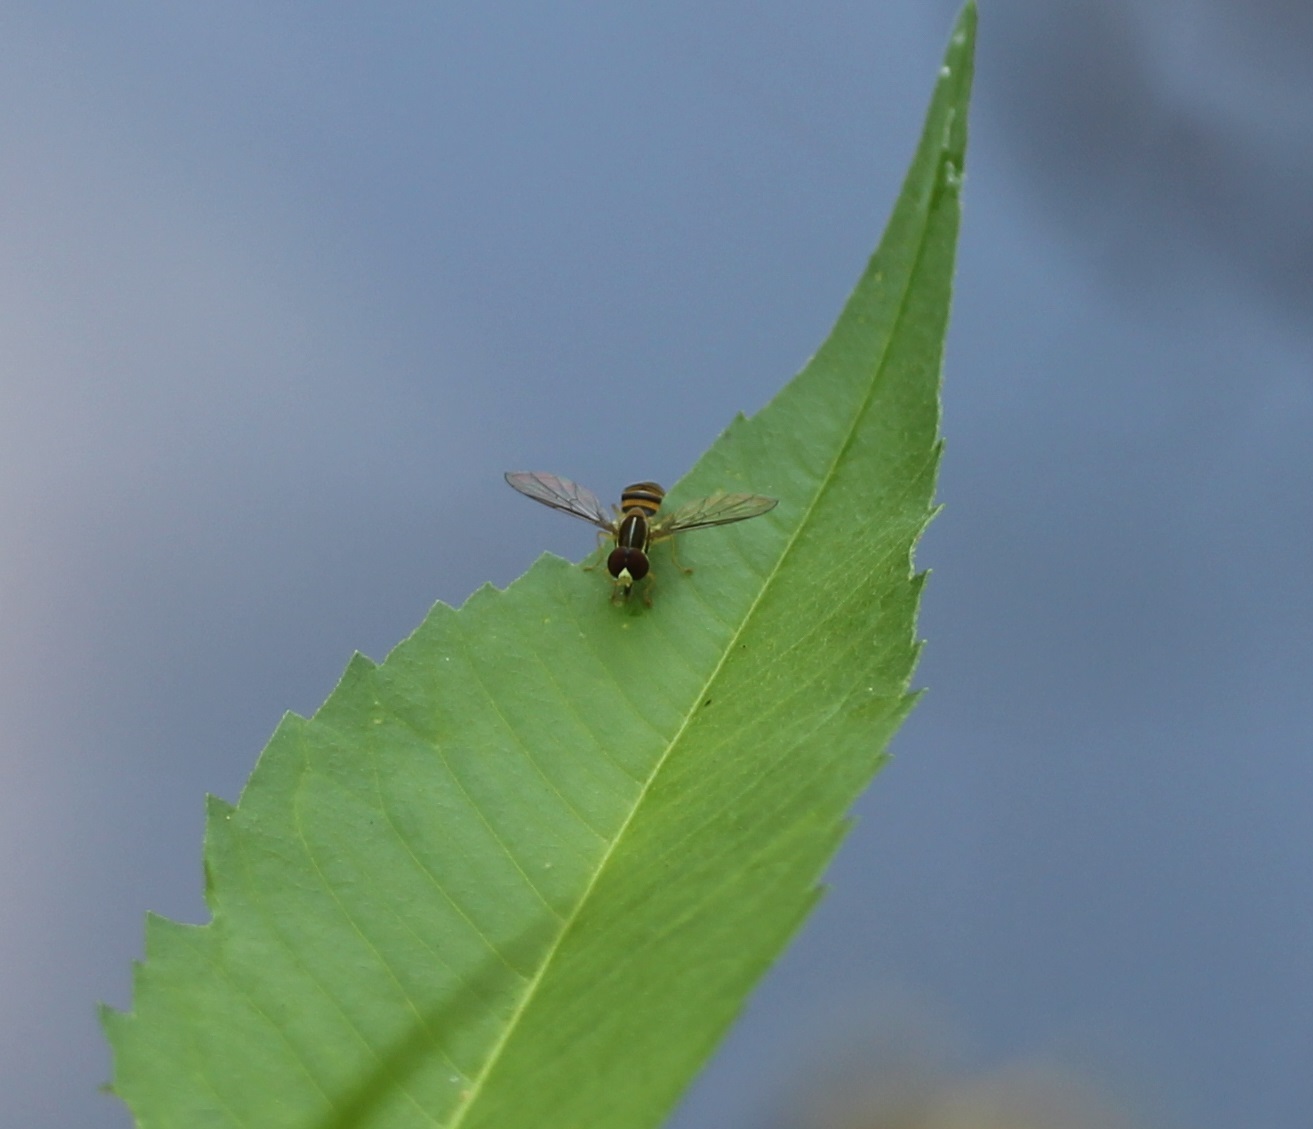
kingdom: Animalia
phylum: Arthropoda
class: Insecta
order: Diptera
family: Syrphidae
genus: Toxomerus
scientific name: Toxomerus
